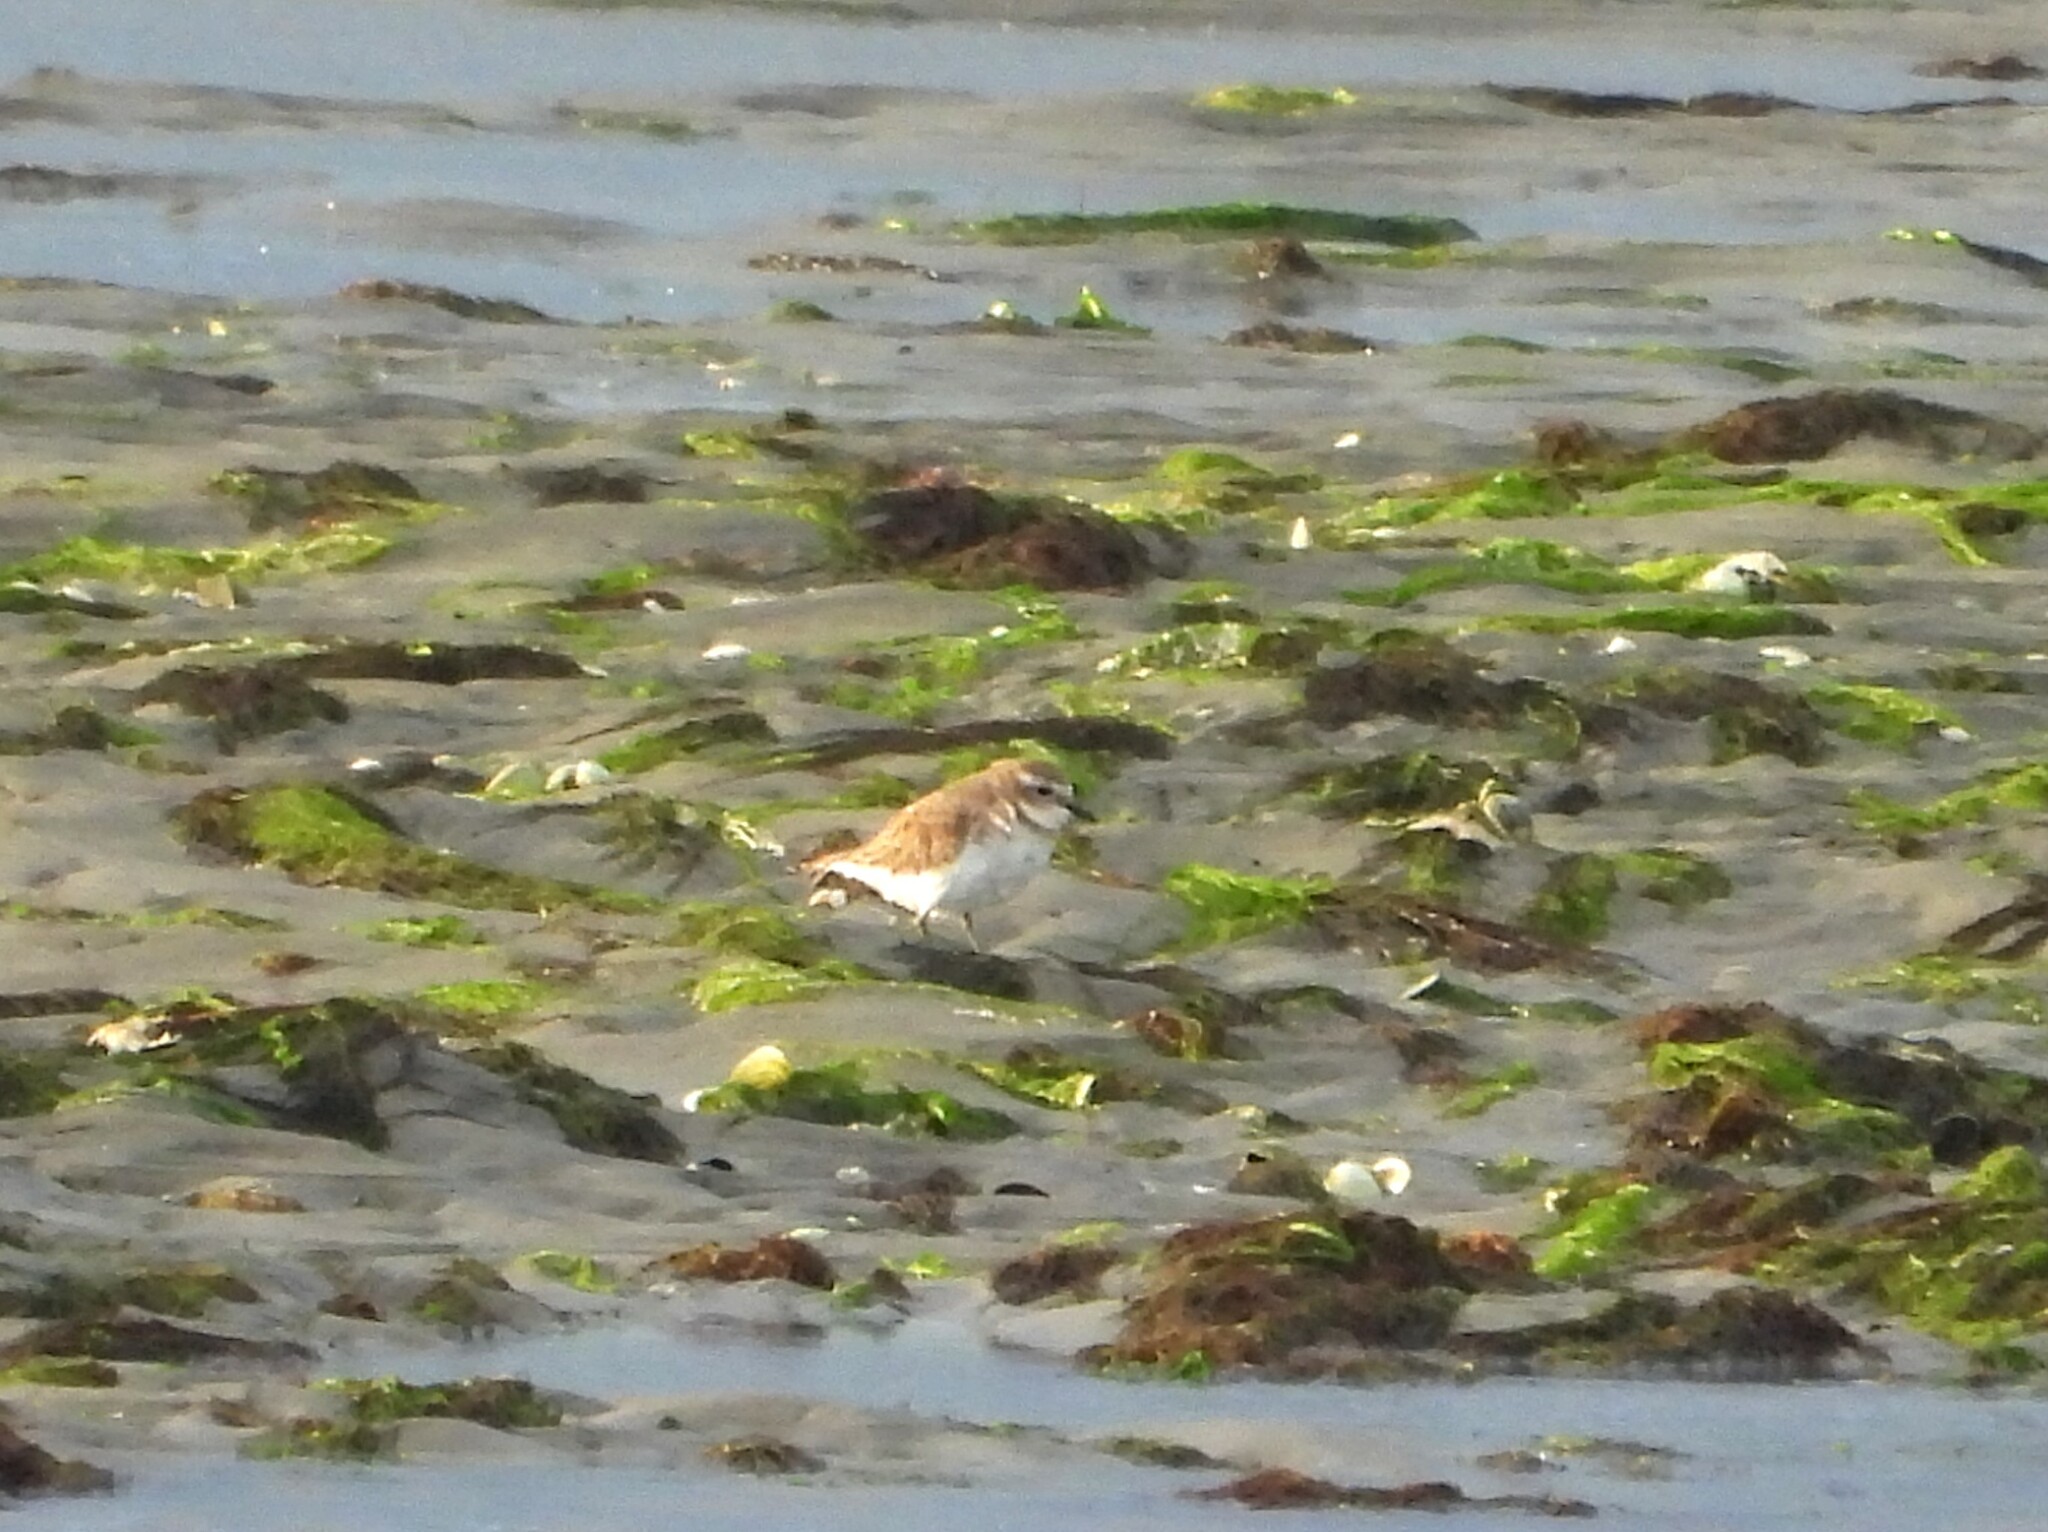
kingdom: Animalia
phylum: Chordata
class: Aves
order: Charadriiformes
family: Charadriidae
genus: Anarhynchus
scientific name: Anarhynchus
